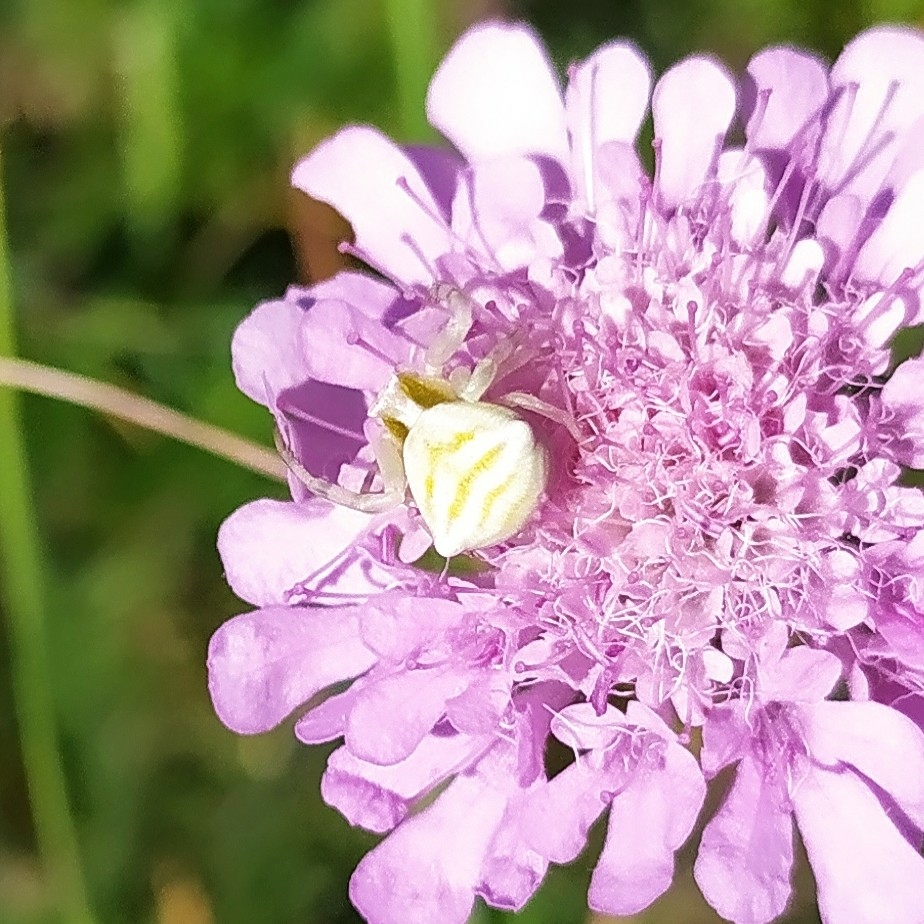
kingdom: Animalia
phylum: Arthropoda
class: Arachnida
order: Araneae
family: Thomisidae
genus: Thomisus
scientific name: Thomisus onustus
